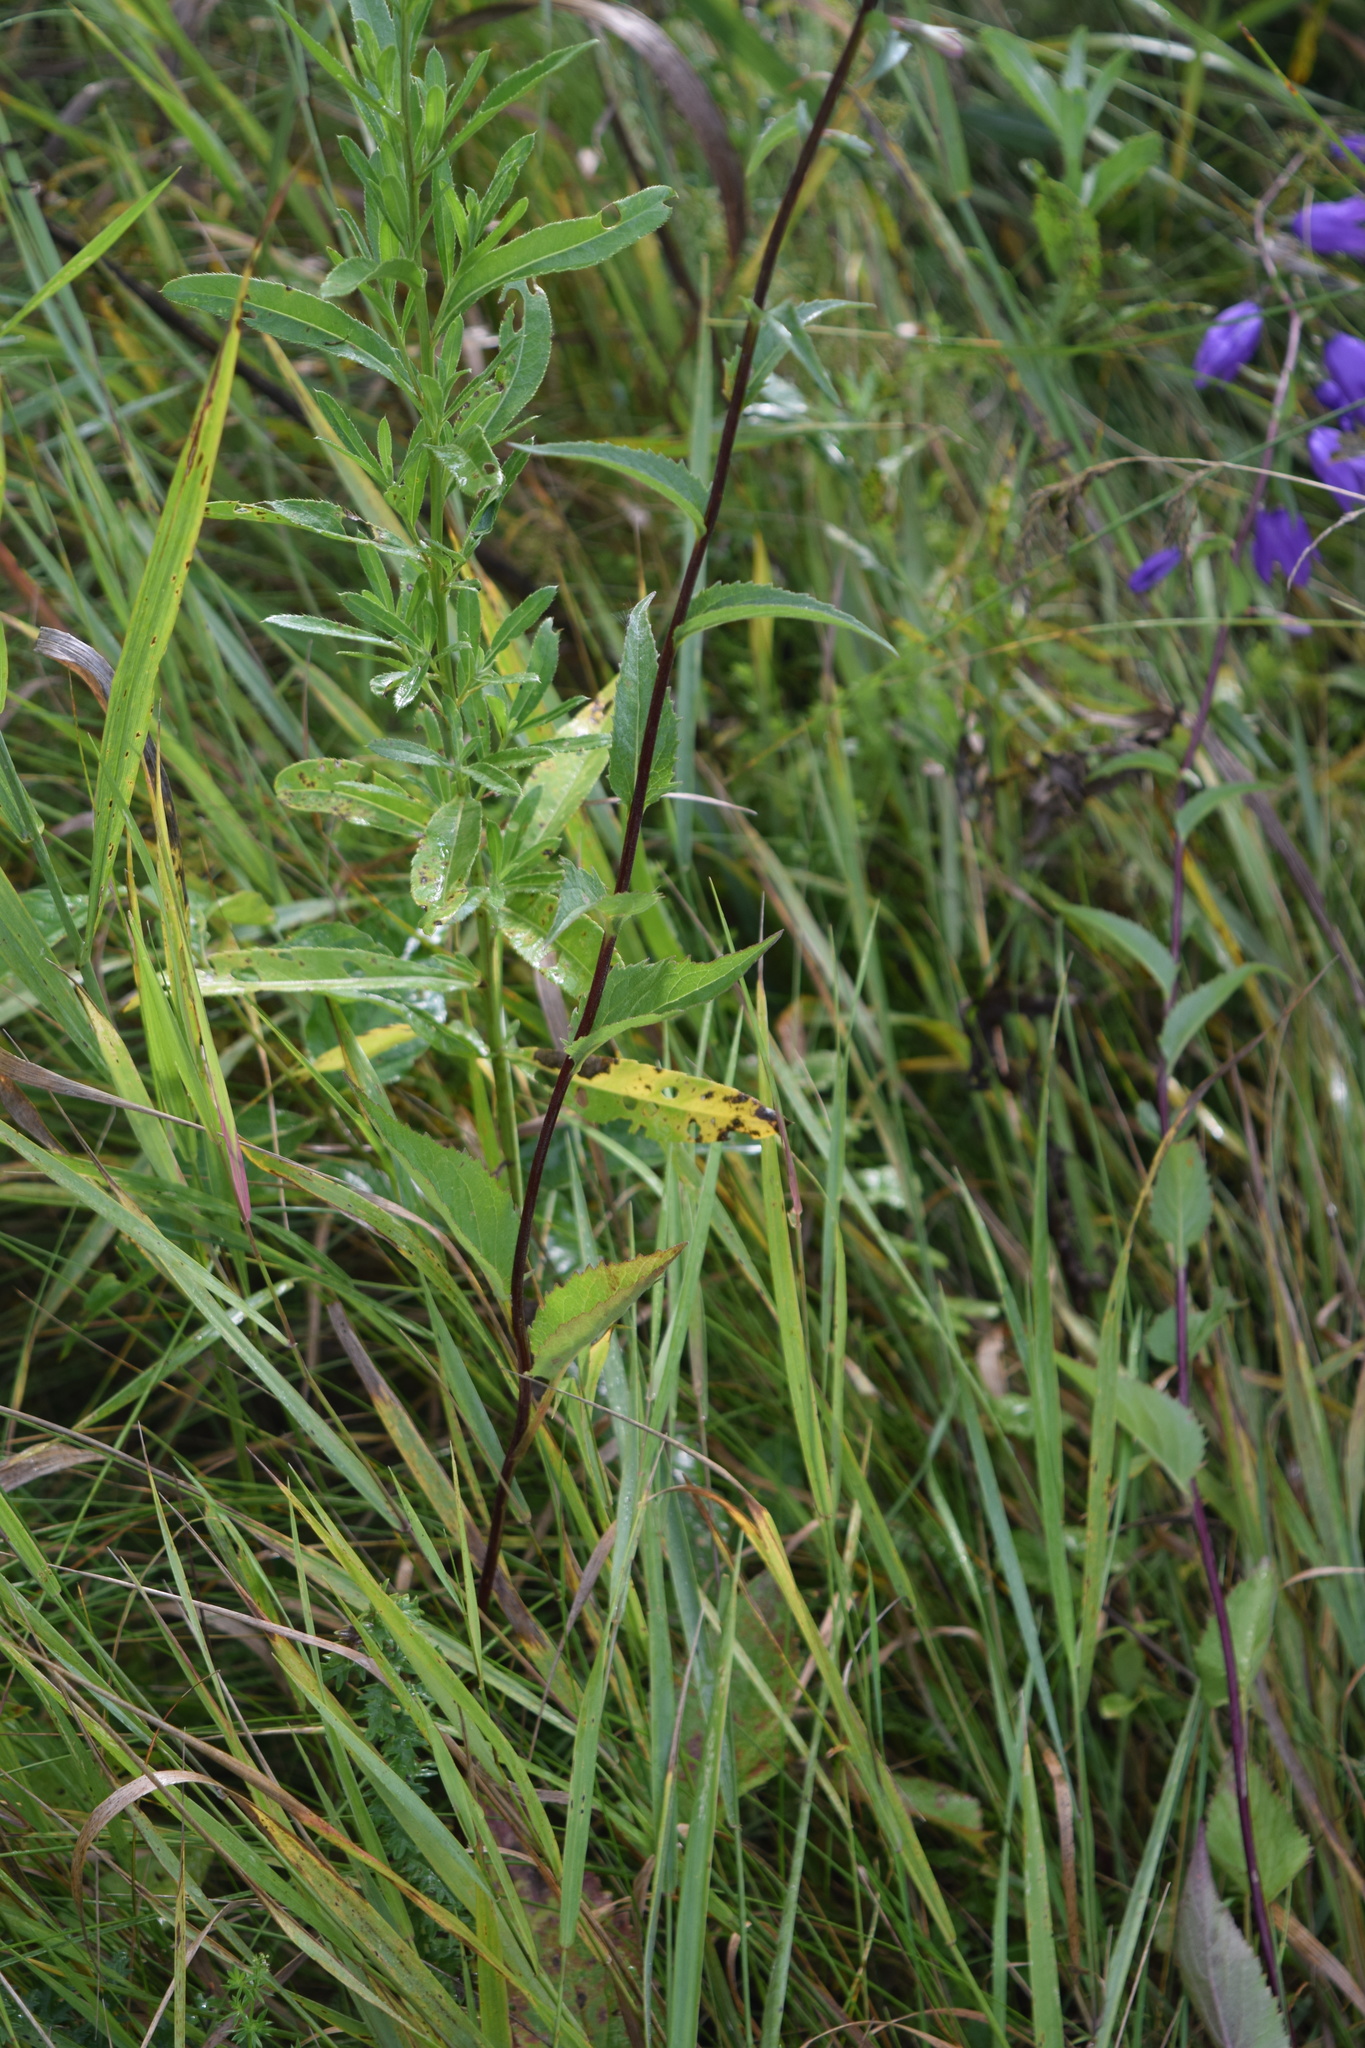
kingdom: Plantae
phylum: Tracheophyta
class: Magnoliopsida
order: Asterales
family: Campanulaceae
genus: Campanula
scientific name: Campanula rapunculoides
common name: Creeping bellflower
